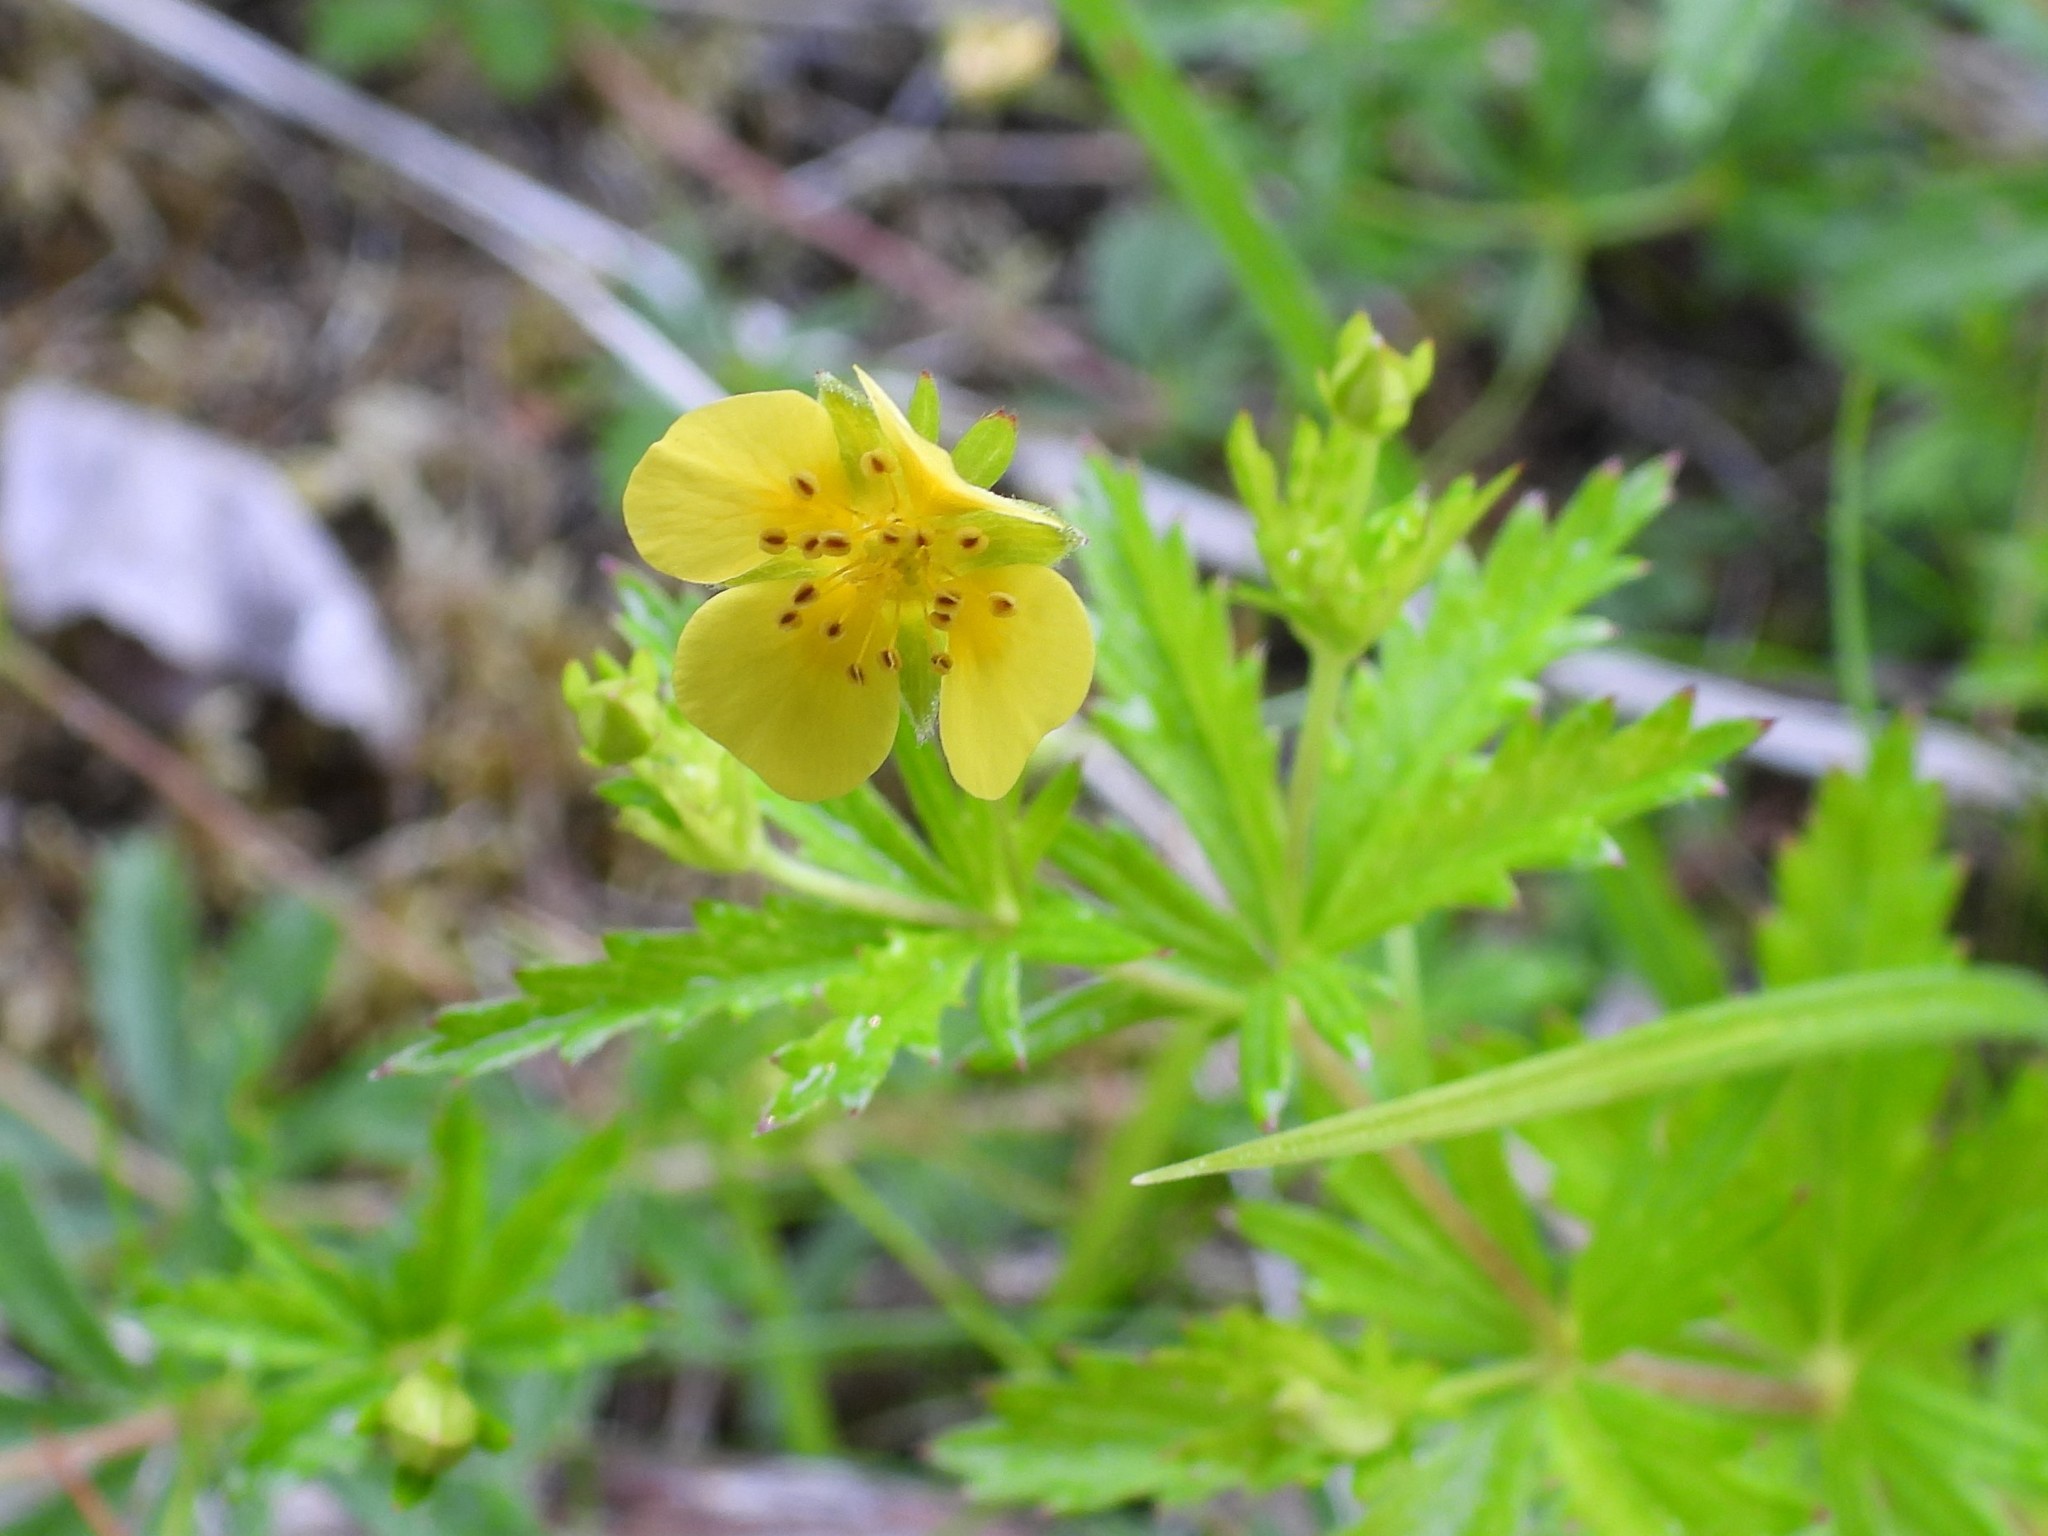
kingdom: Plantae
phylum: Tracheophyta
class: Magnoliopsida
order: Rosales
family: Rosaceae
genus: Potentilla
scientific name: Potentilla erecta
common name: Tormentil
